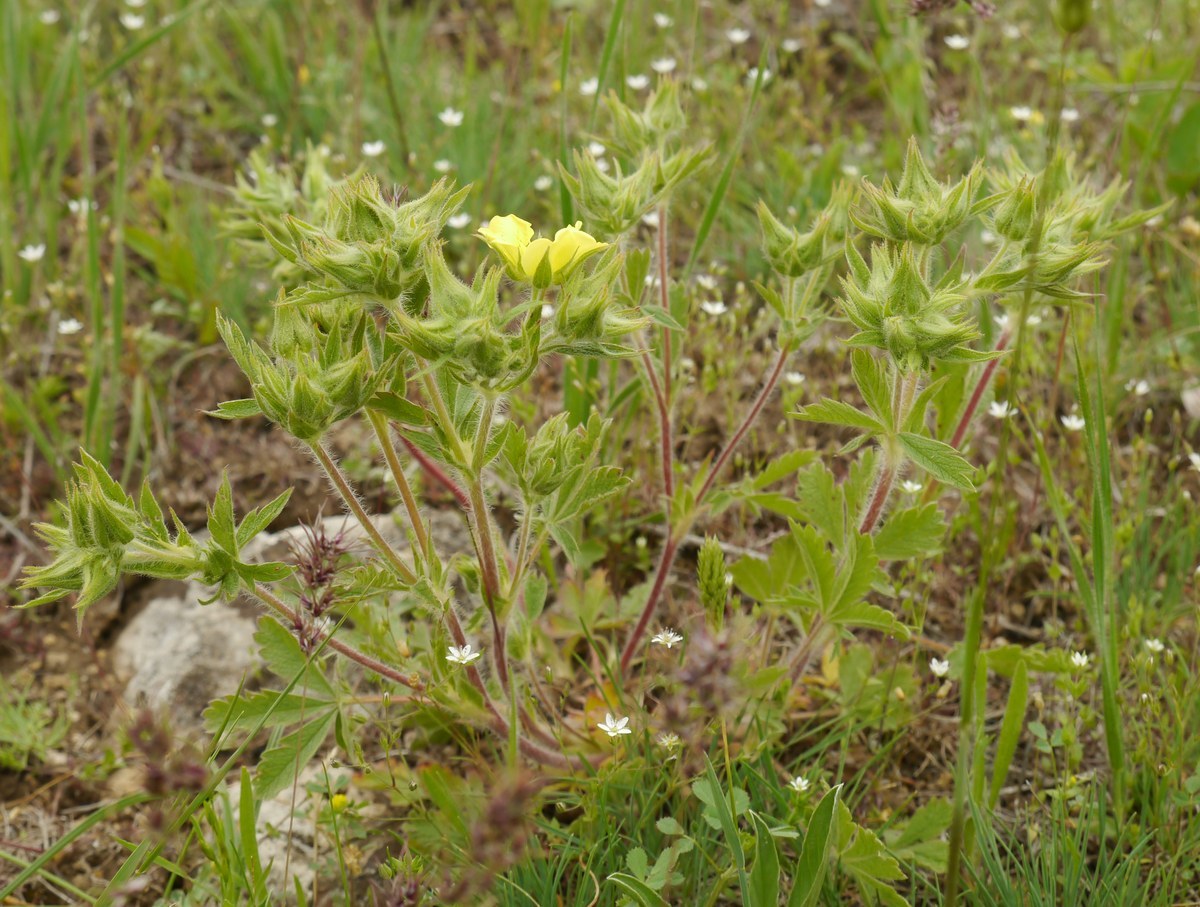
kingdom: Plantae
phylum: Tracheophyta
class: Magnoliopsida
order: Rosales
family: Rosaceae
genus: Potentilla
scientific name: Potentilla astracanica
